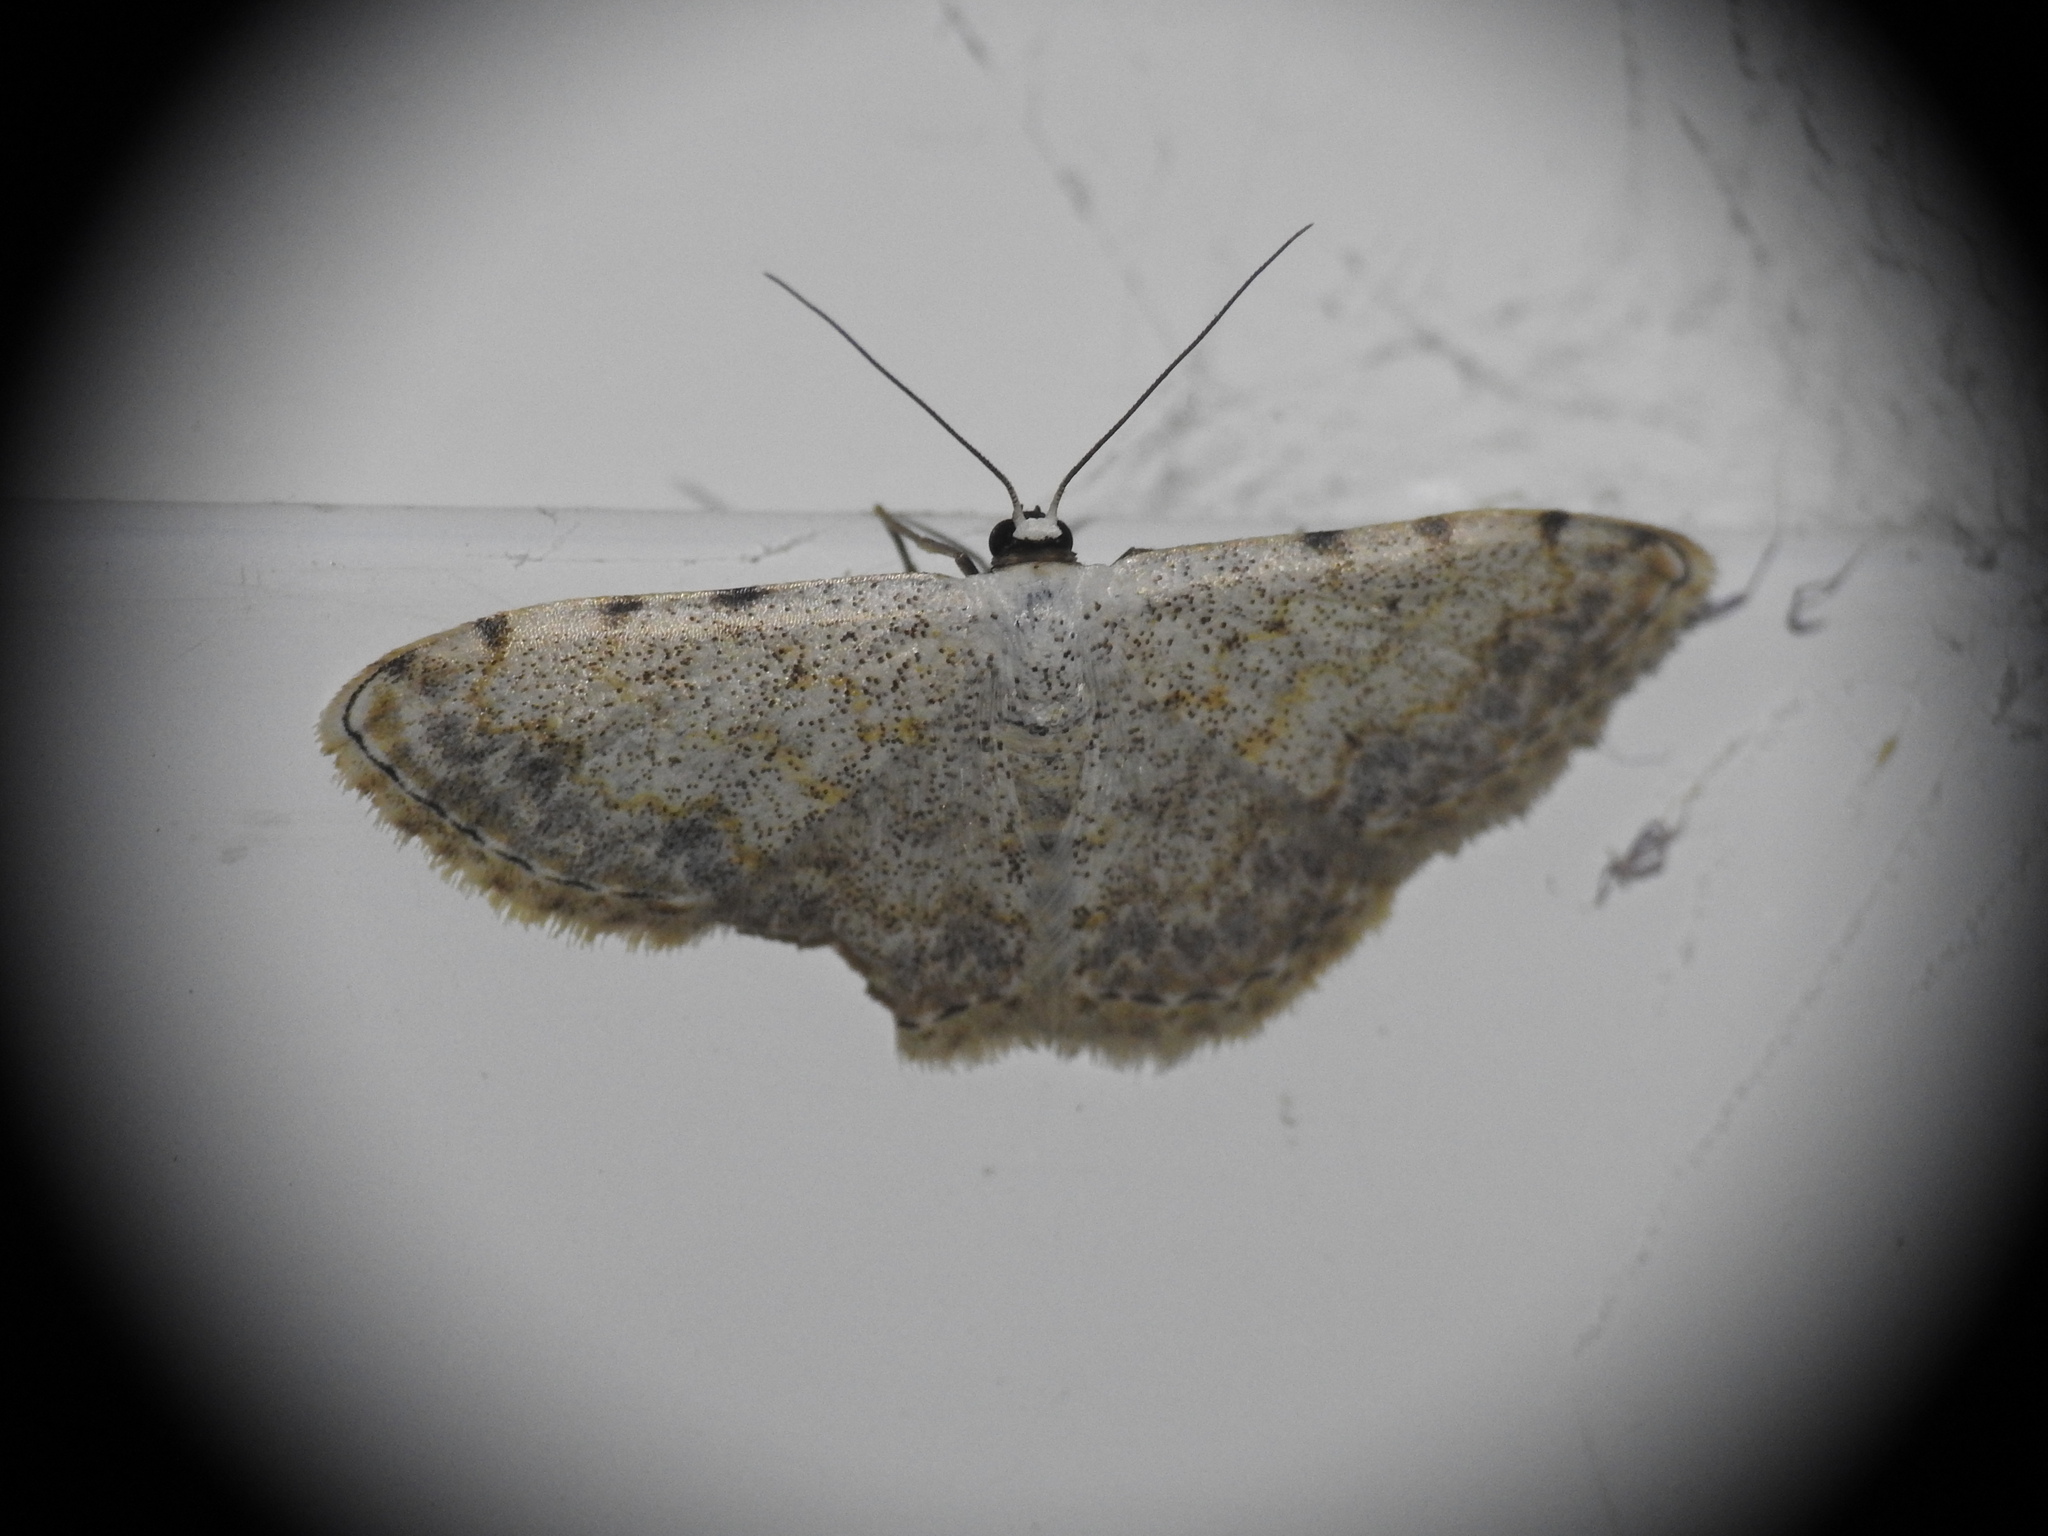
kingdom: Animalia
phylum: Arthropoda
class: Insecta
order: Lepidoptera
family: Geometridae
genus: Scopula
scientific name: Scopula submutata
